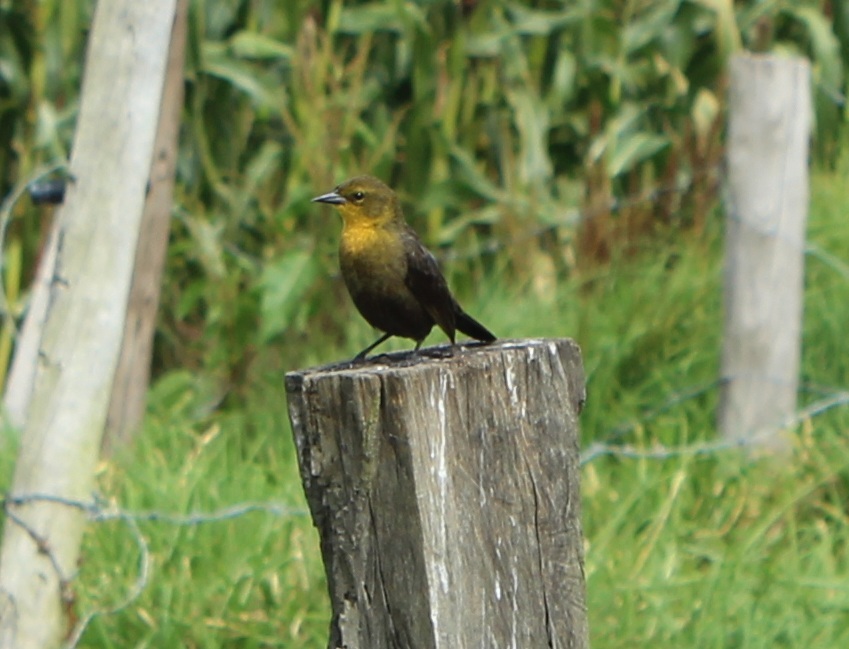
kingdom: Animalia
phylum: Chordata
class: Aves
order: Passeriformes
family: Icteridae
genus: Chrysomus
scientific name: Chrysomus icterocephalus
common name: Yellow-hooded blackbird
